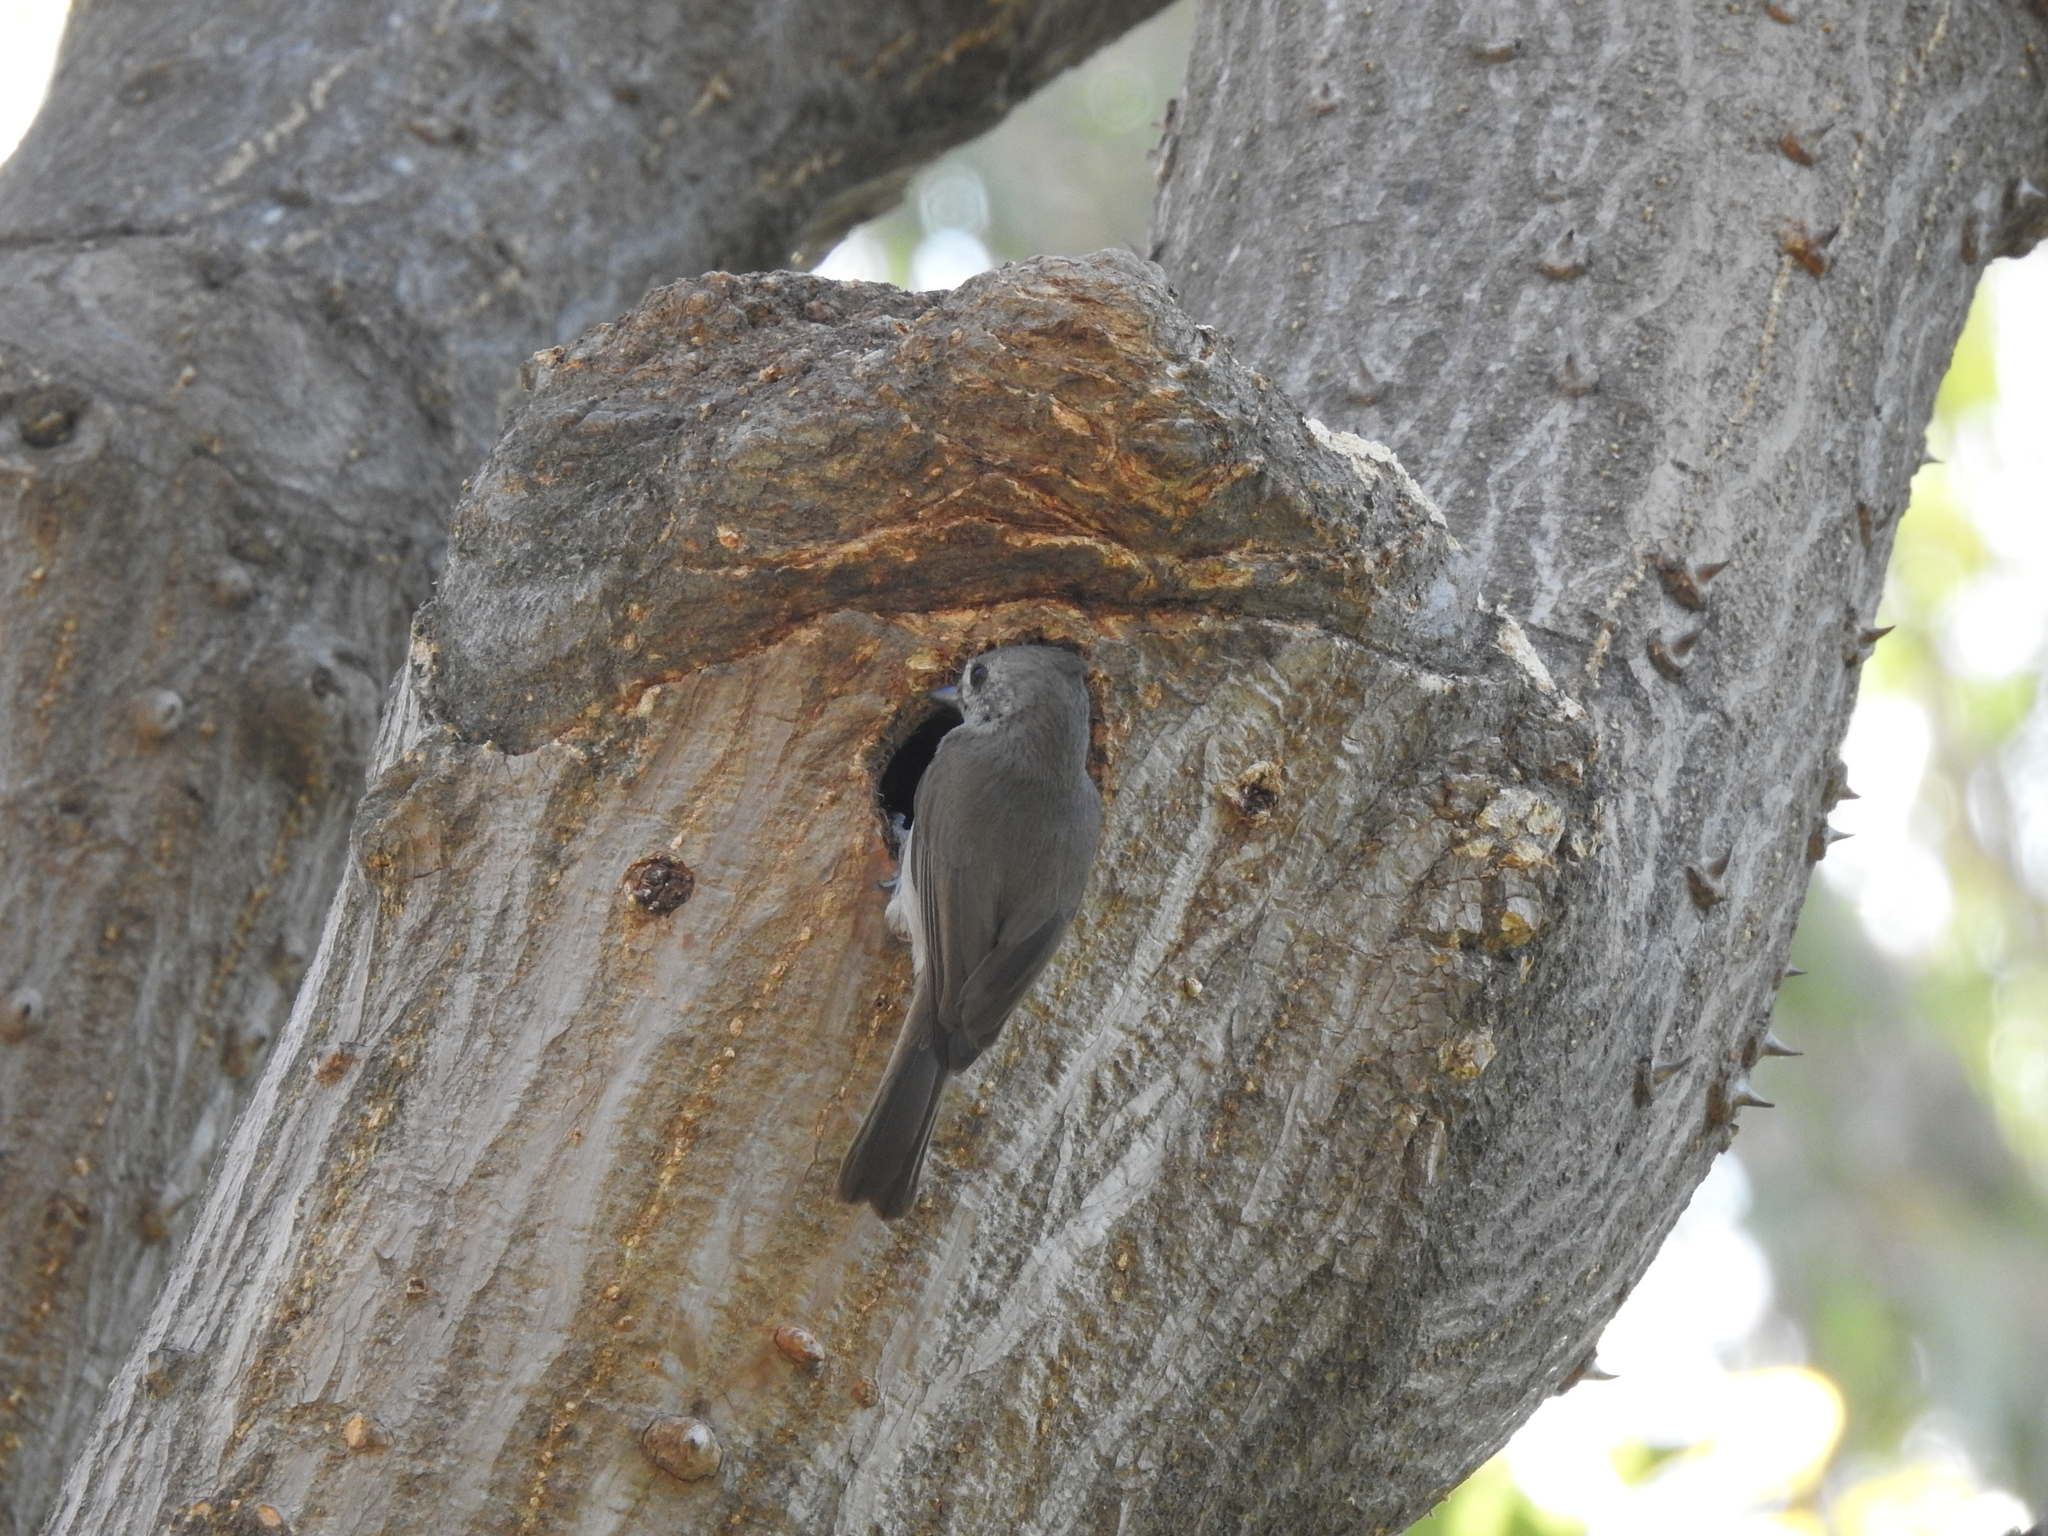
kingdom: Animalia
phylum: Chordata
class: Aves
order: Passeriformes
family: Paridae
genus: Baeolophus
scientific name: Baeolophus inornatus
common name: Oak titmouse
